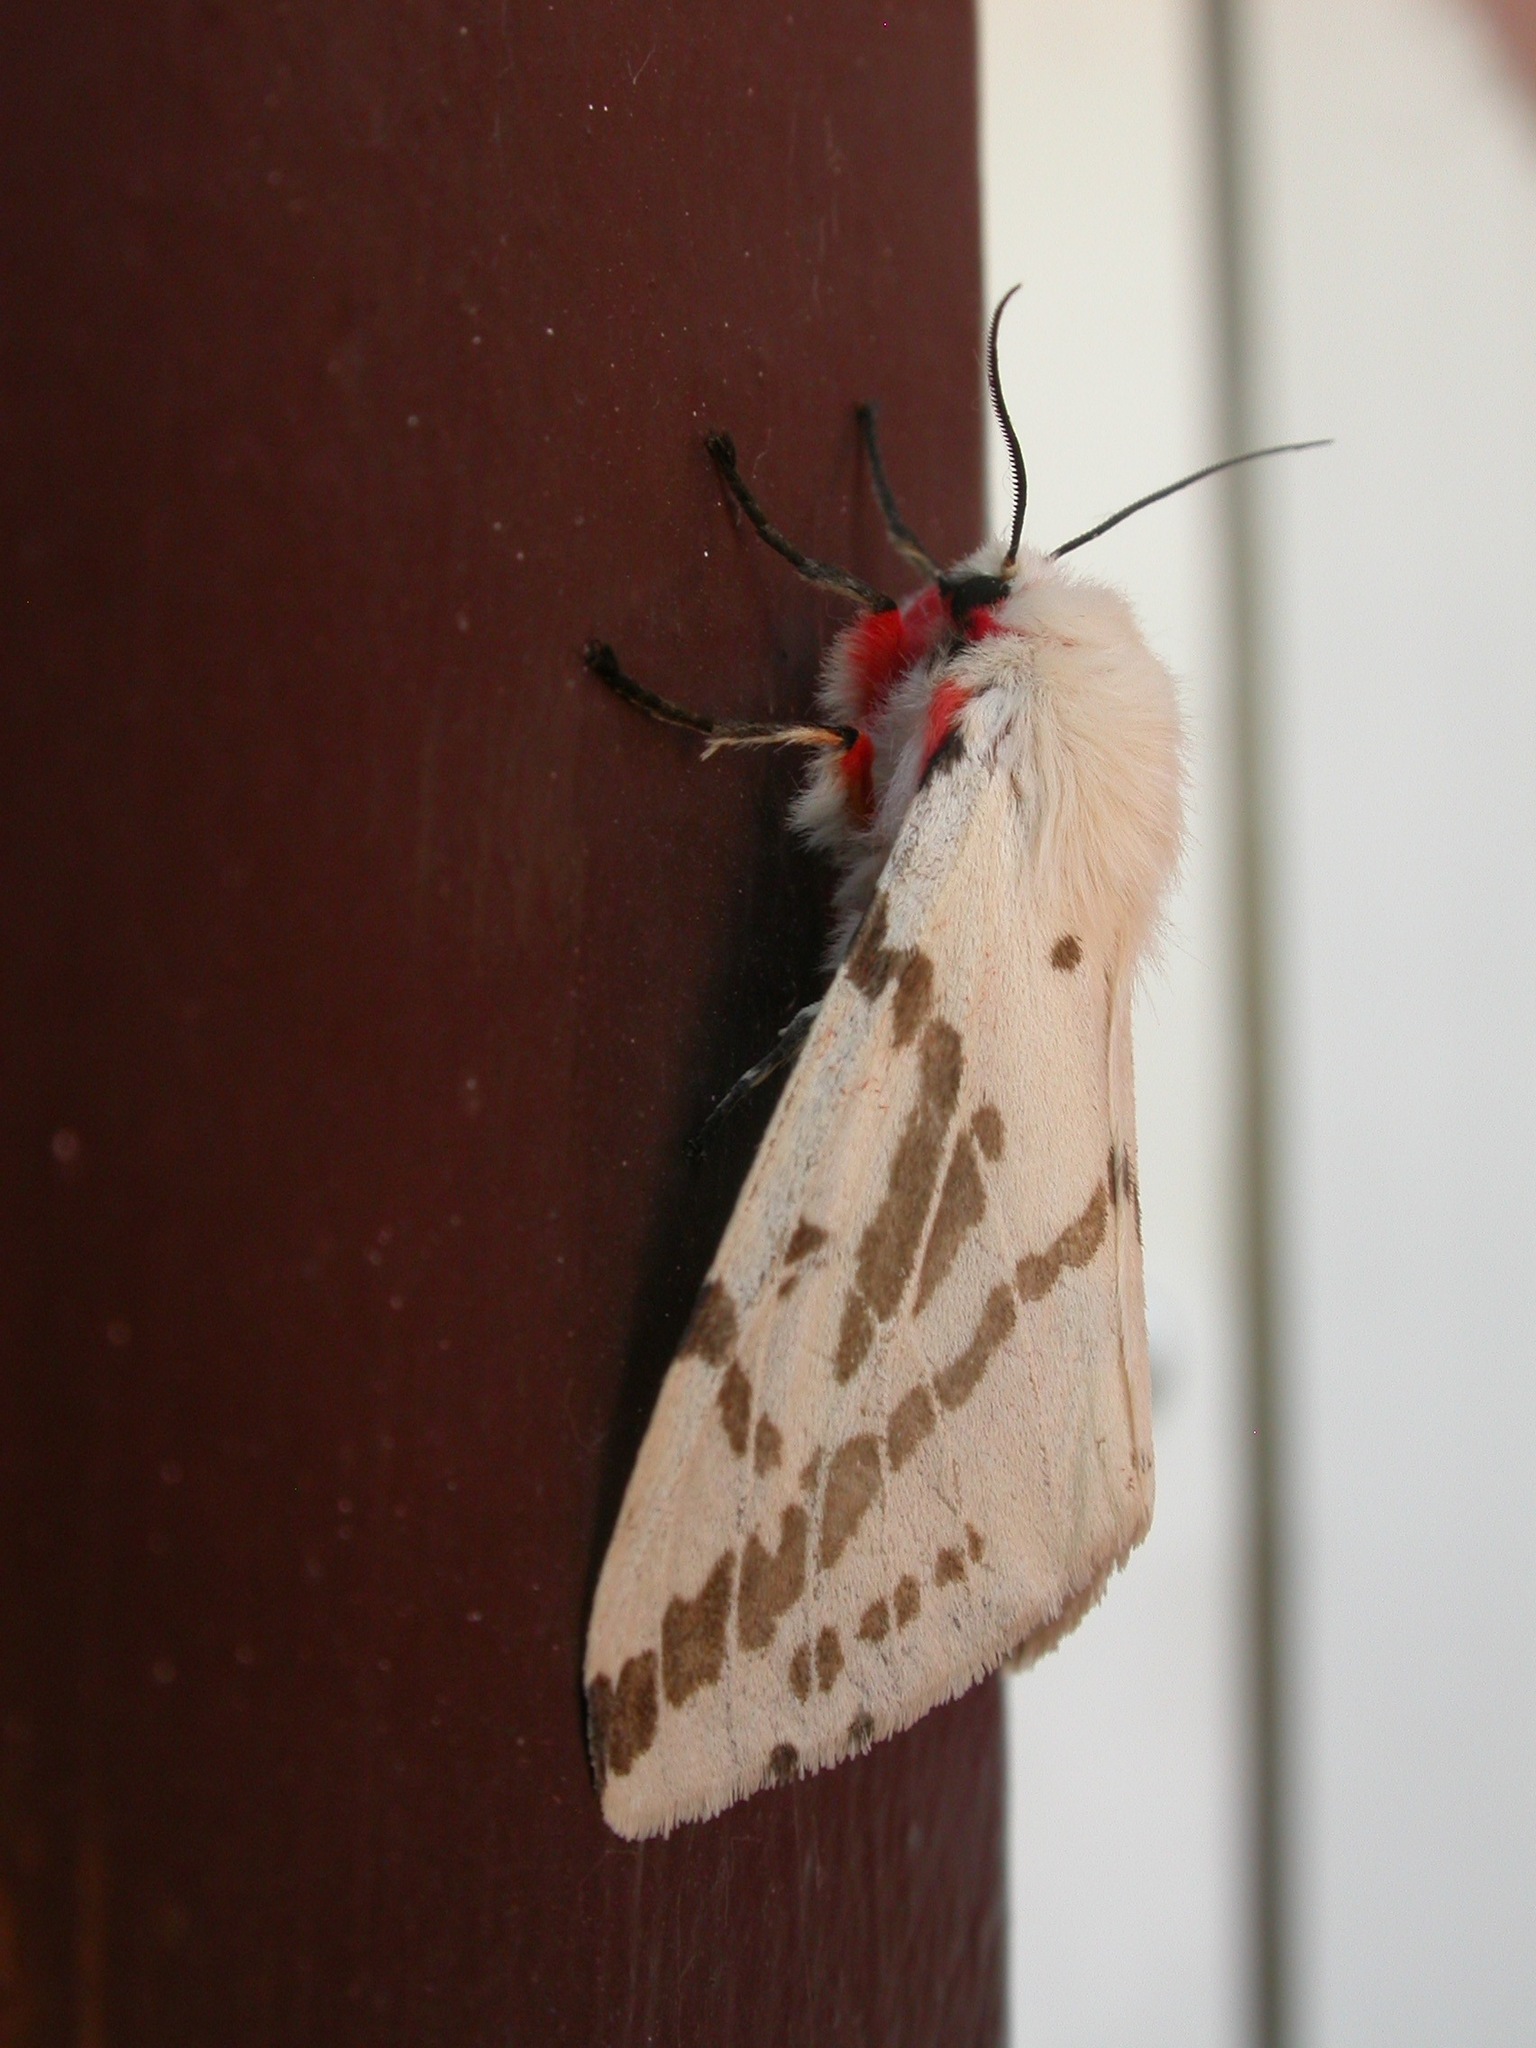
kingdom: Animalia
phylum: Arthropoda
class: Insecta
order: Lepidoptera
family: Erebidae
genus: Ardices
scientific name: Ardices canescens
